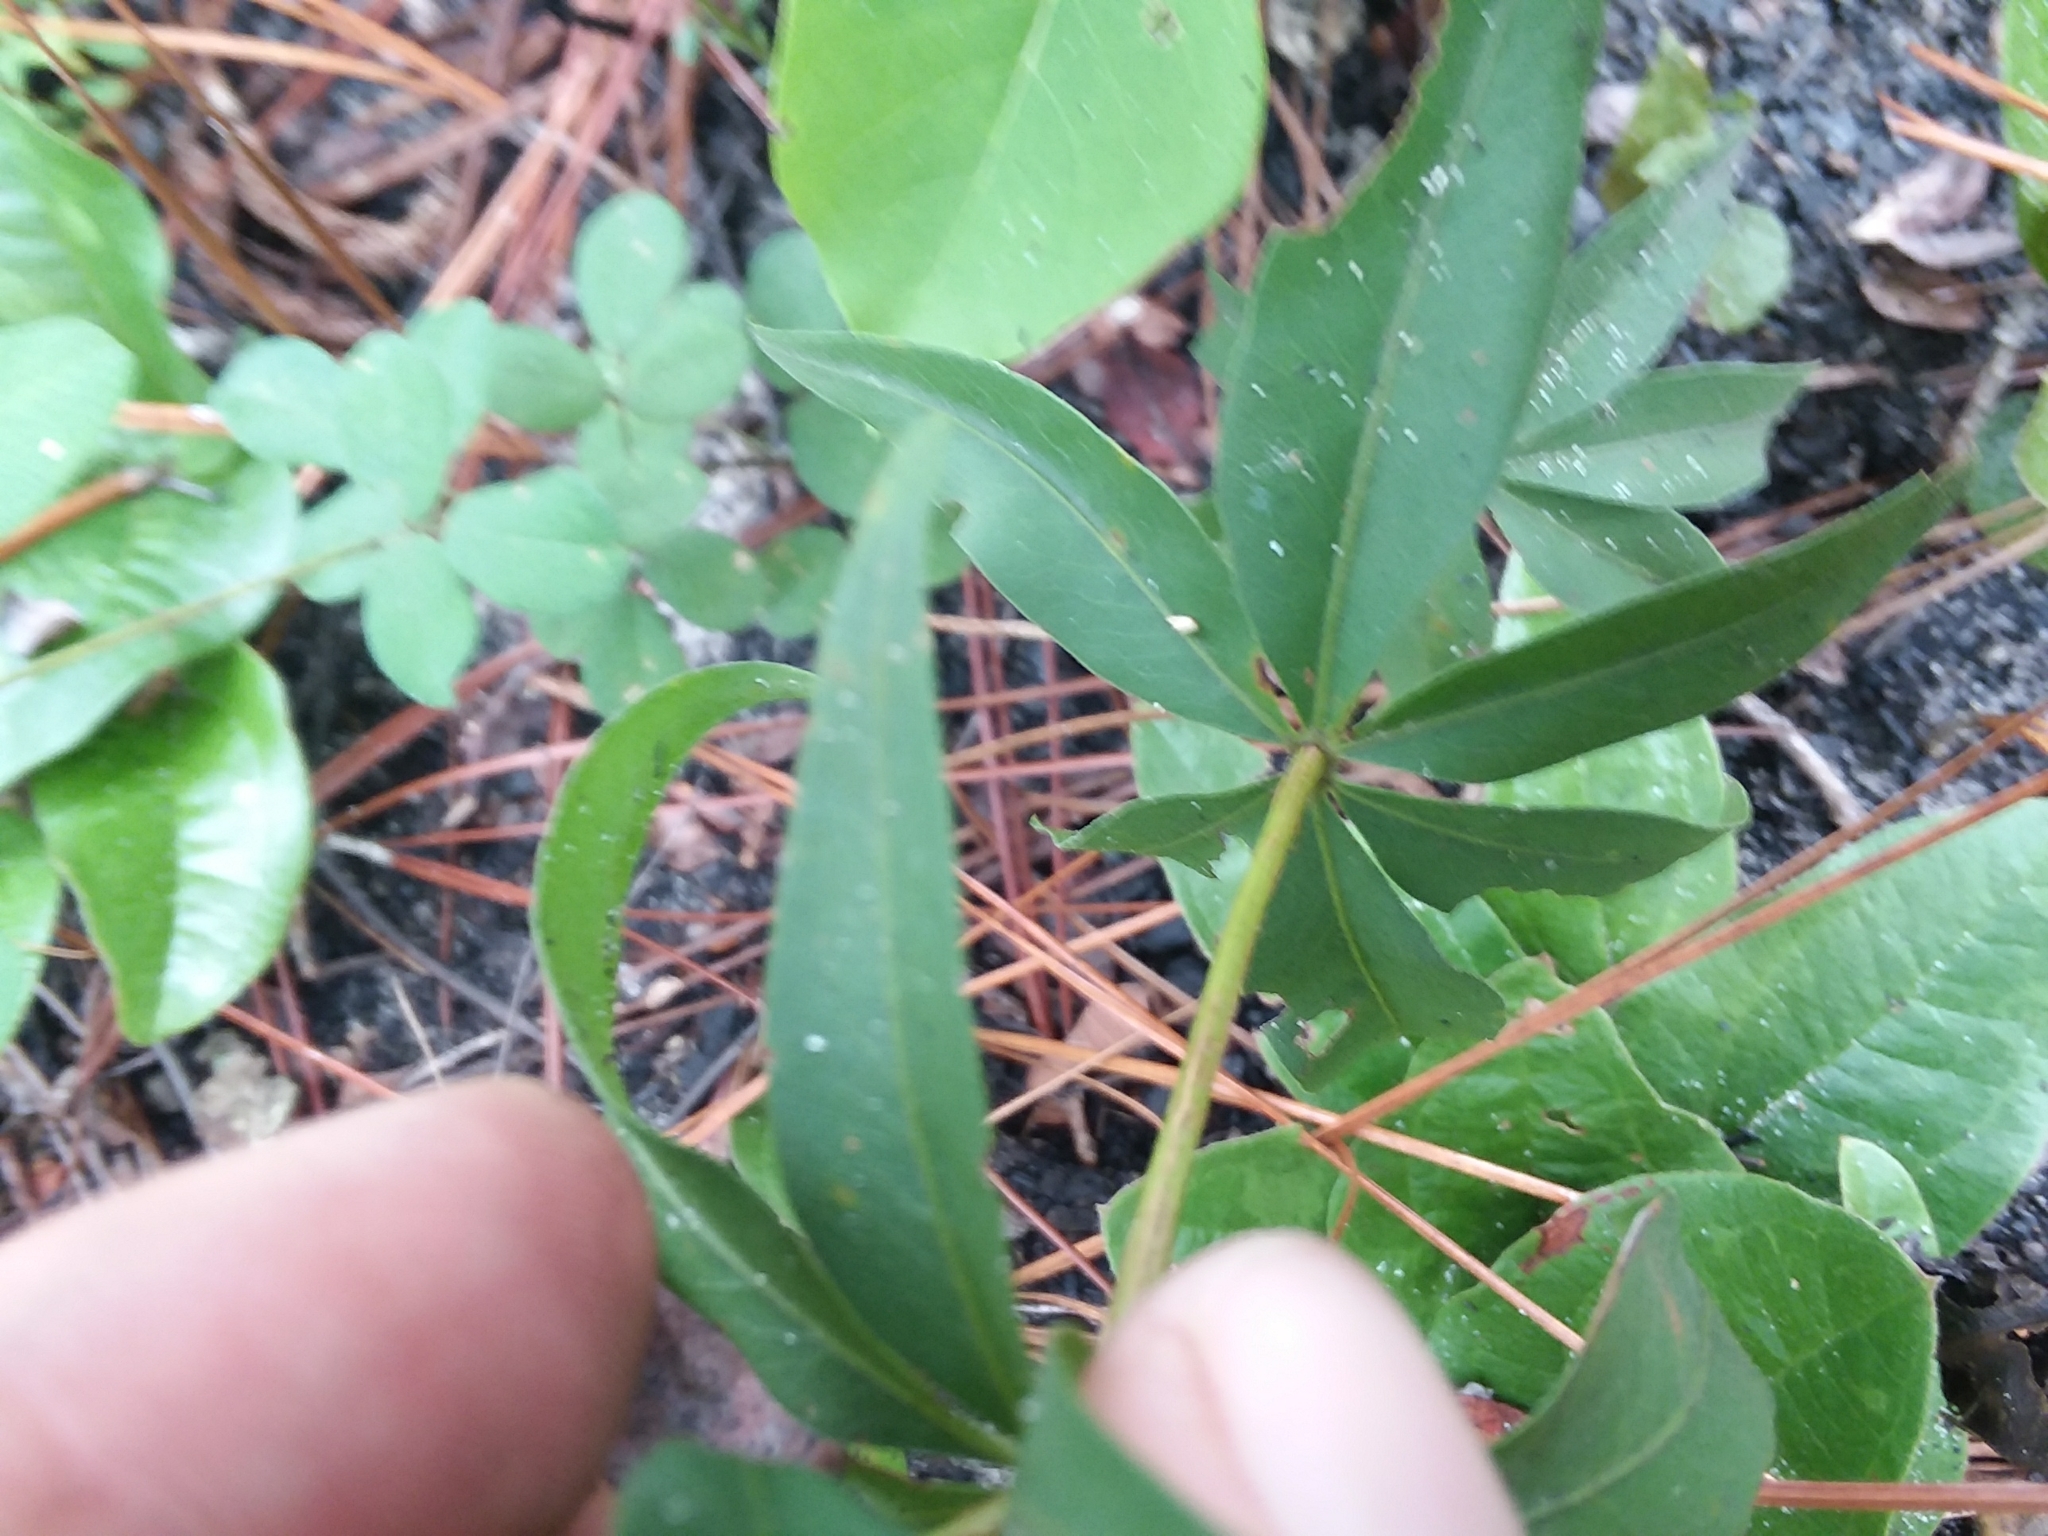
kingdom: Plantae
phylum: Tracheophyta
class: Magnoliopsida
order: Asterales
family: Asteraceae
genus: Coreopsis
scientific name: Coreopsis major
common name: Forest tickseed
